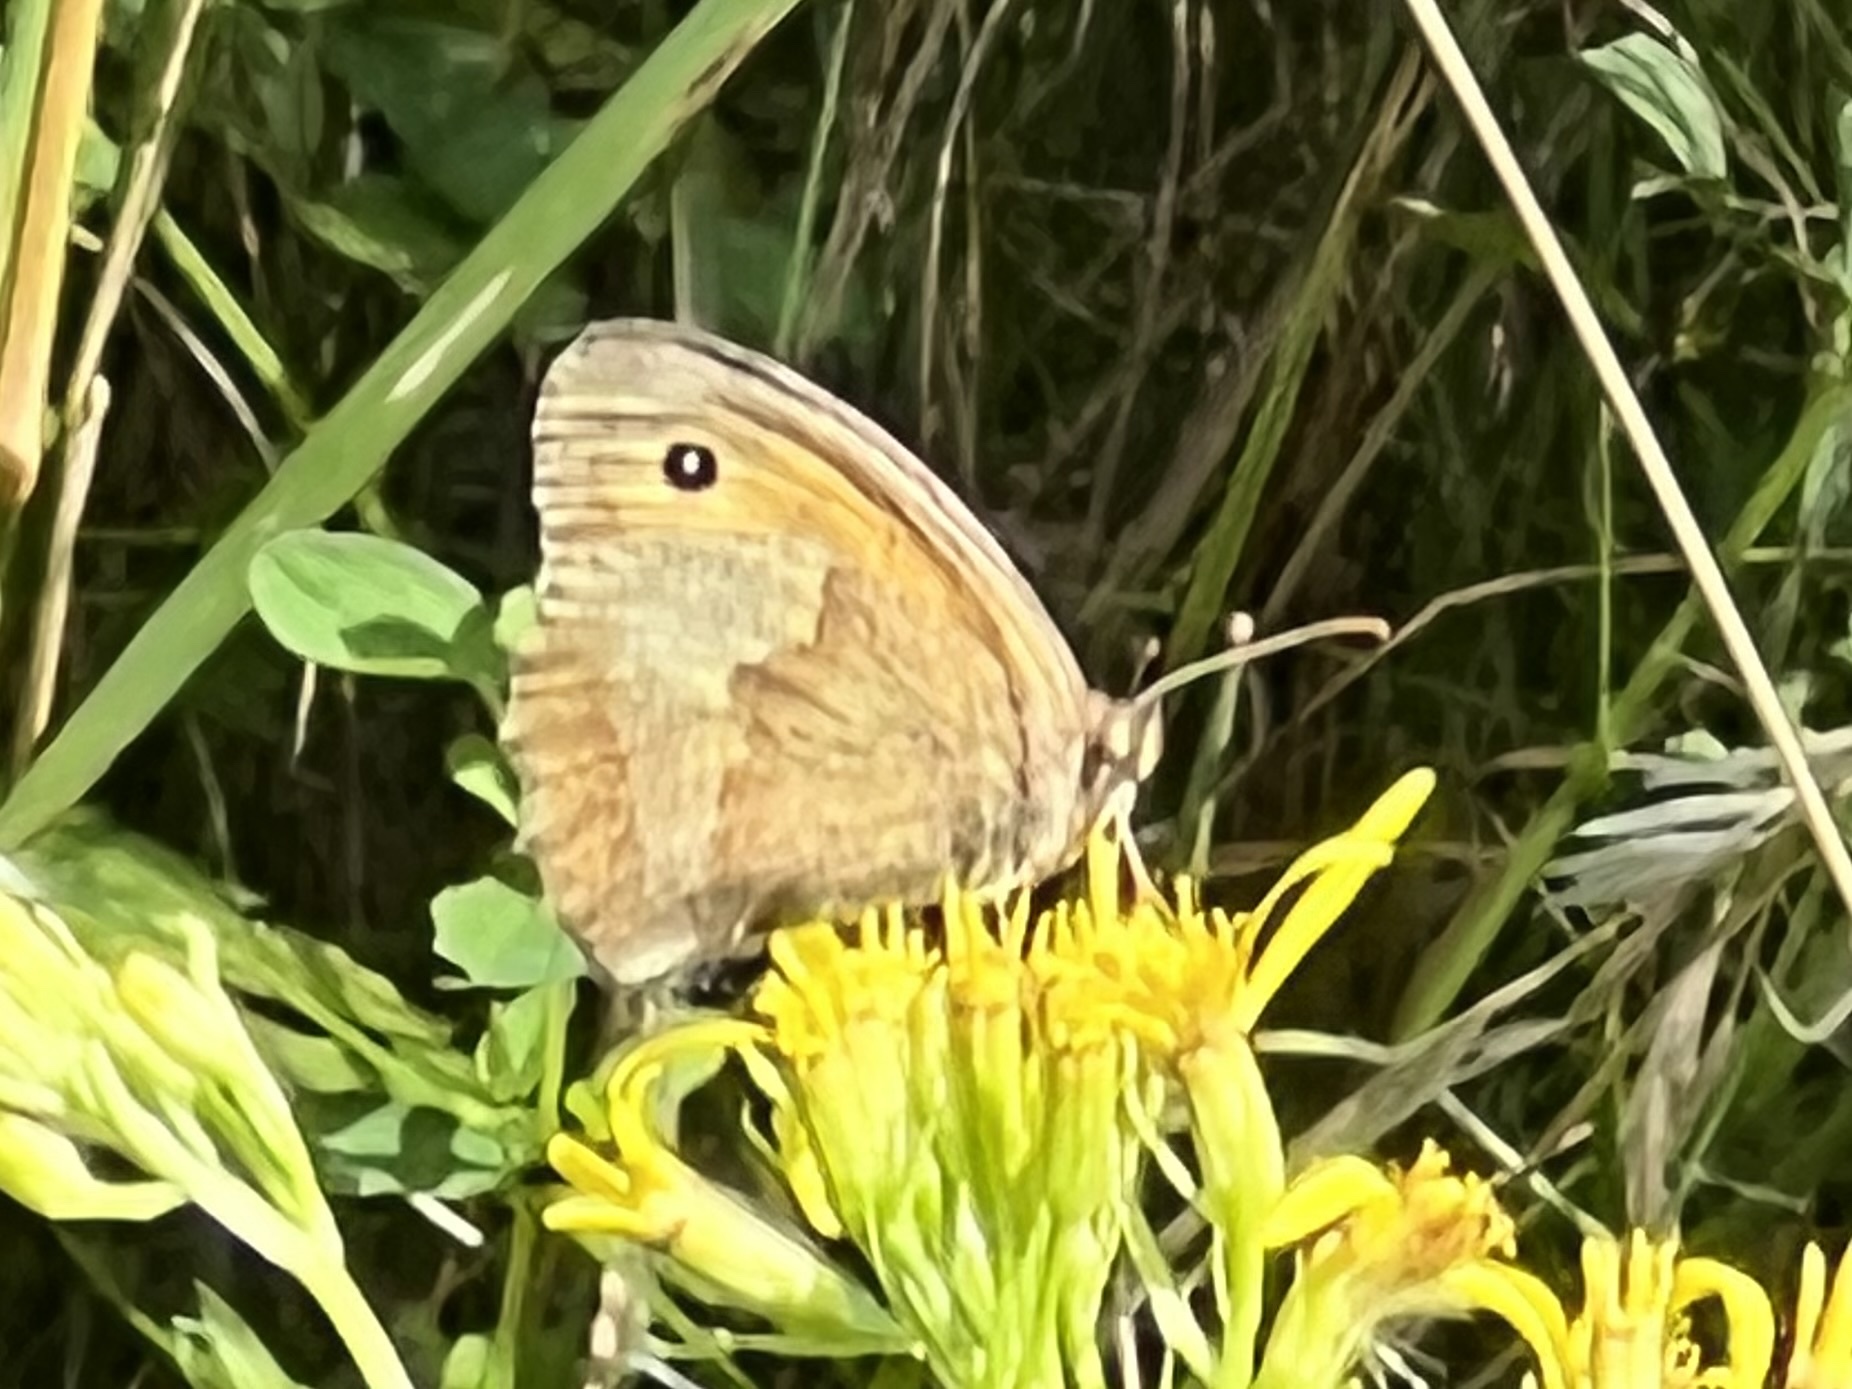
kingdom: Animalia
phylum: Arthropoda
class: Insecta
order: Lepidoptera
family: Nymphalidae
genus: Maniola
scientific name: Maniola jurtina
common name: Meadow brown
